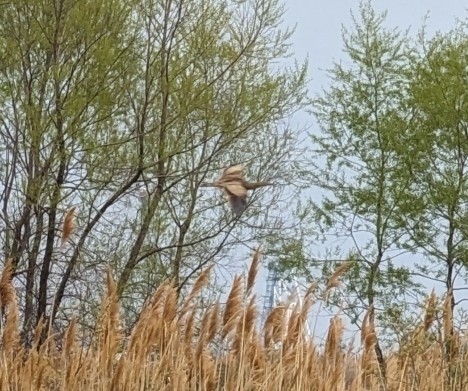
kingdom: Animalia
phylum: Chordata
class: Aves
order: Pelecaniformes
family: Ardeidae
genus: Botaurus
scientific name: Botaurus lentiginosus
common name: American bittern
